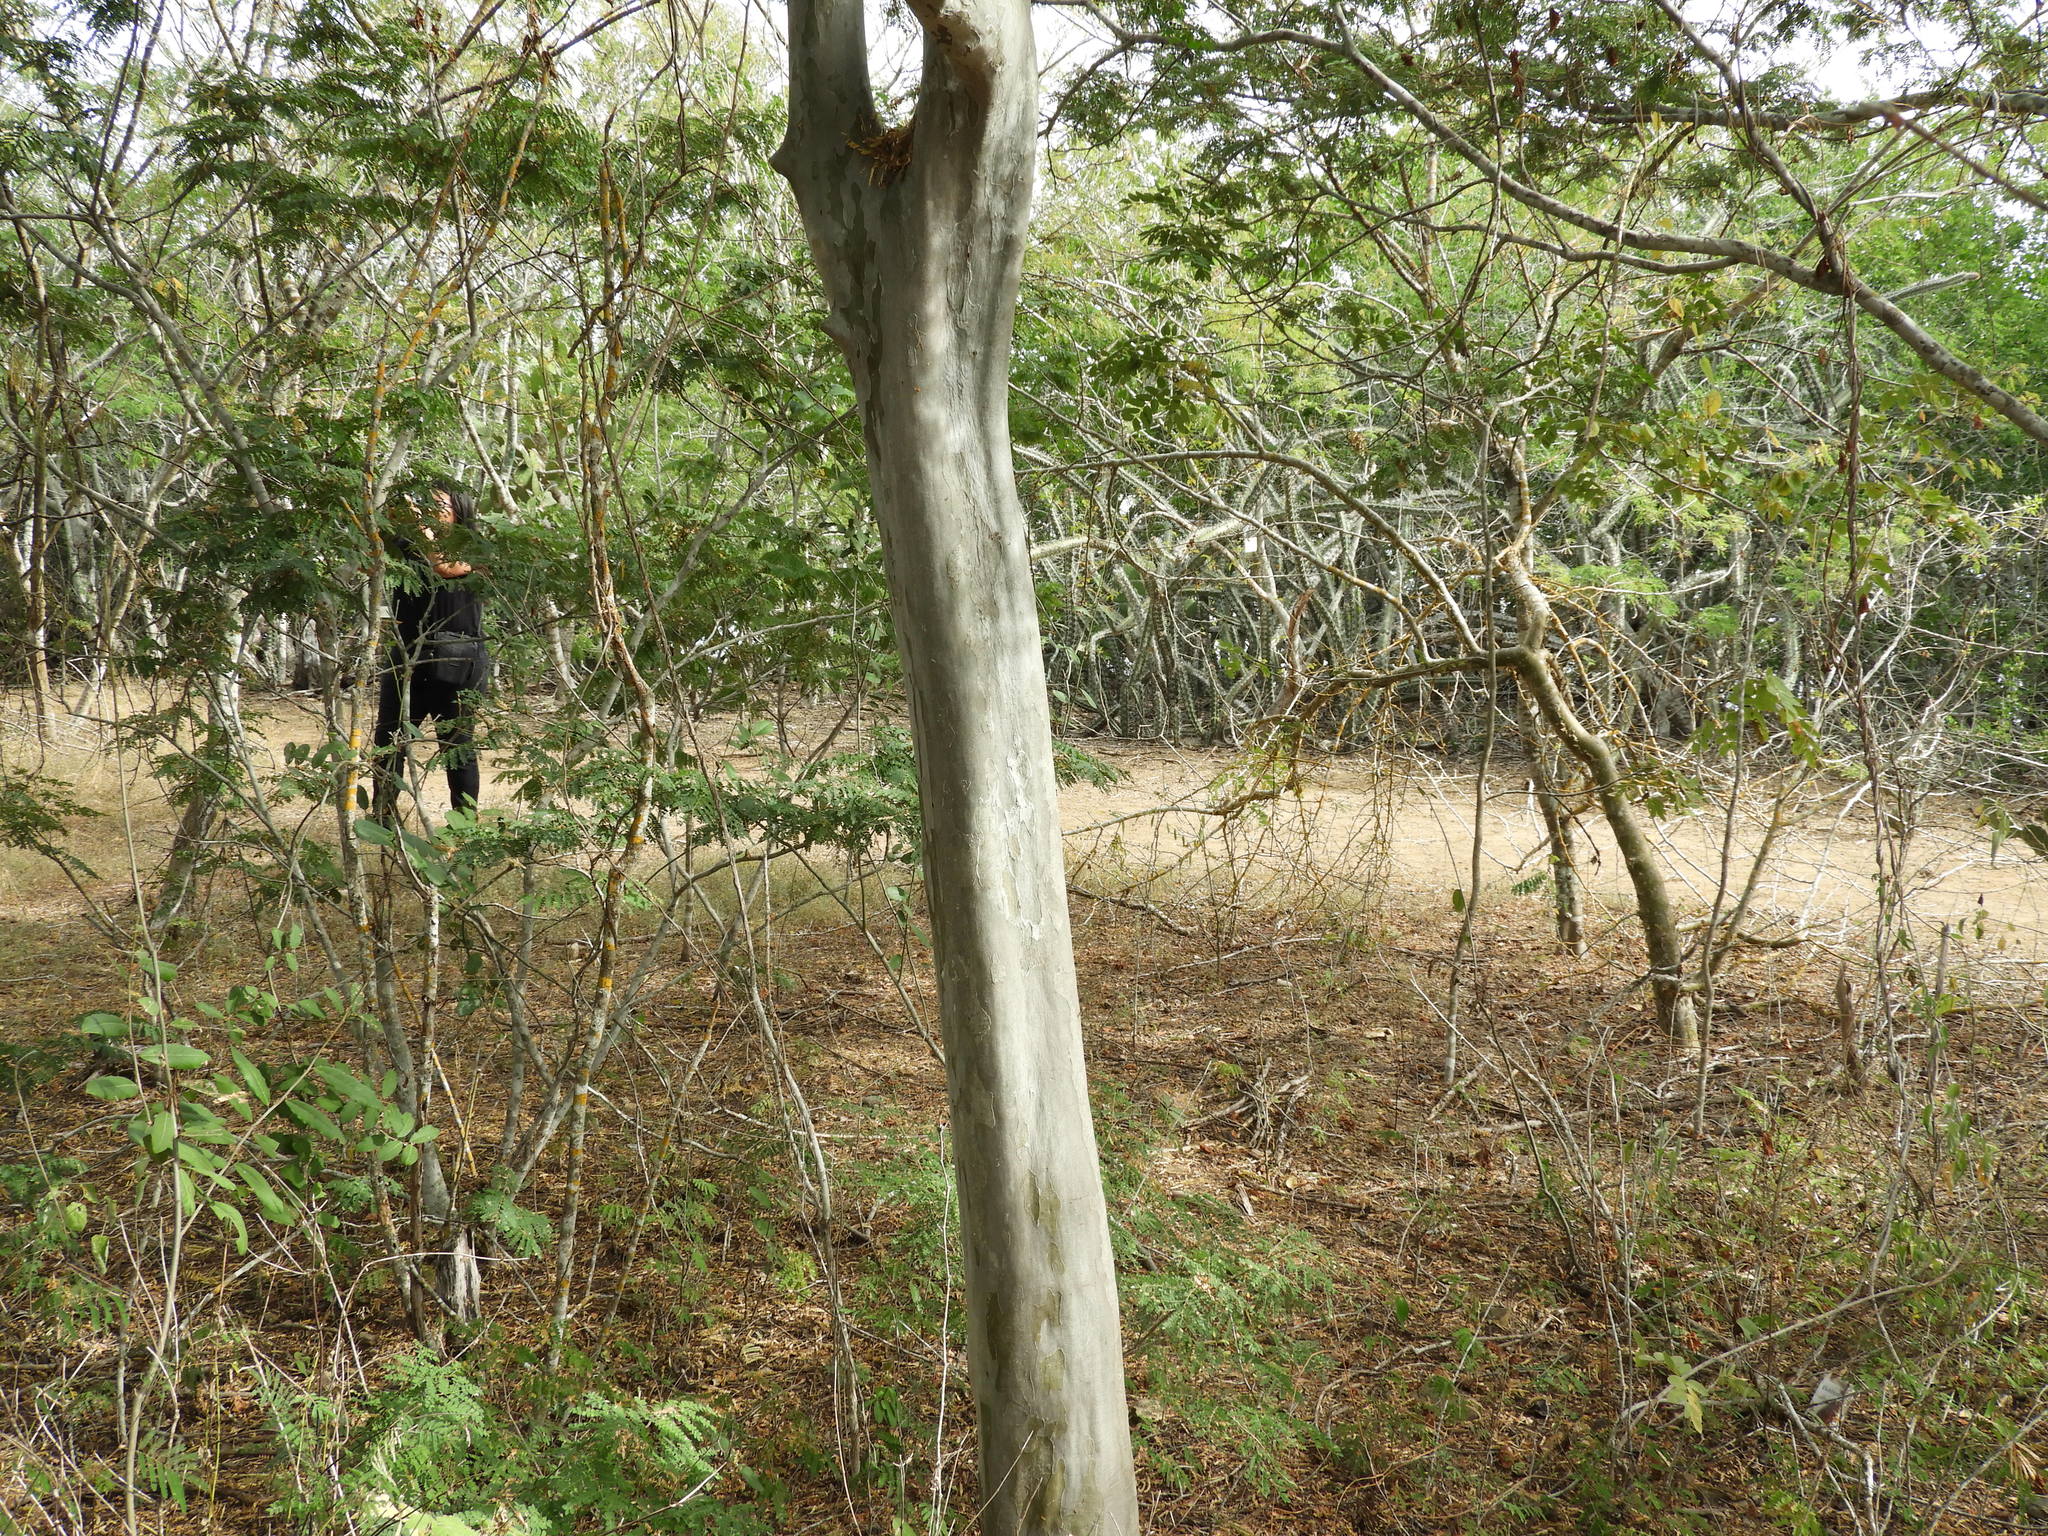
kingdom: Plantae
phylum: Tracheophyta
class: Magnoliopsida
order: Fabales
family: Fabaceae
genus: Libidibia
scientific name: Libidibia sclerocarpa
